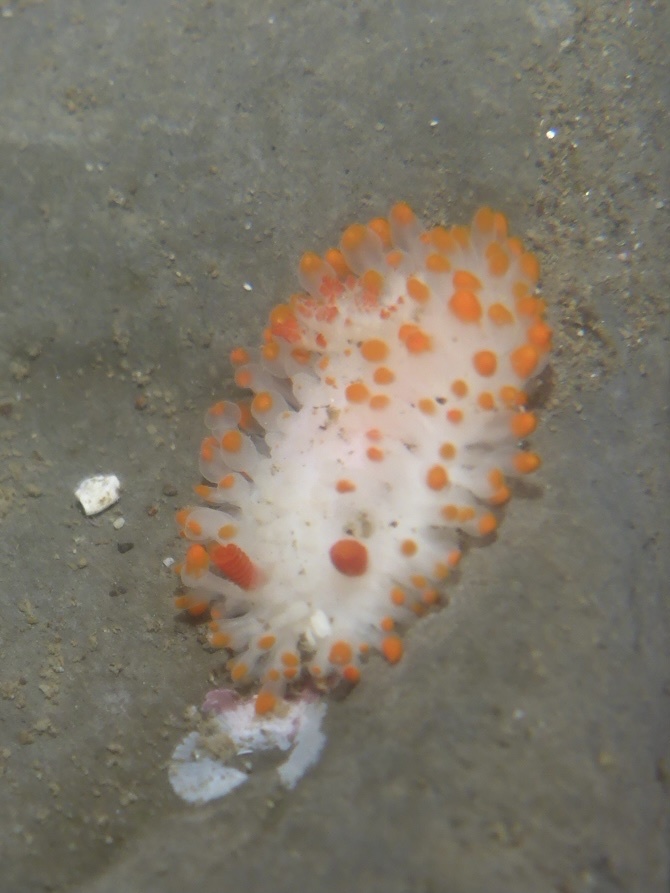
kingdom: Animalia
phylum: Mollusca
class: Gastropoda
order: Nudibranchia
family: Polyceridae
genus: Limacia
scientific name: Limacia cockerelli
